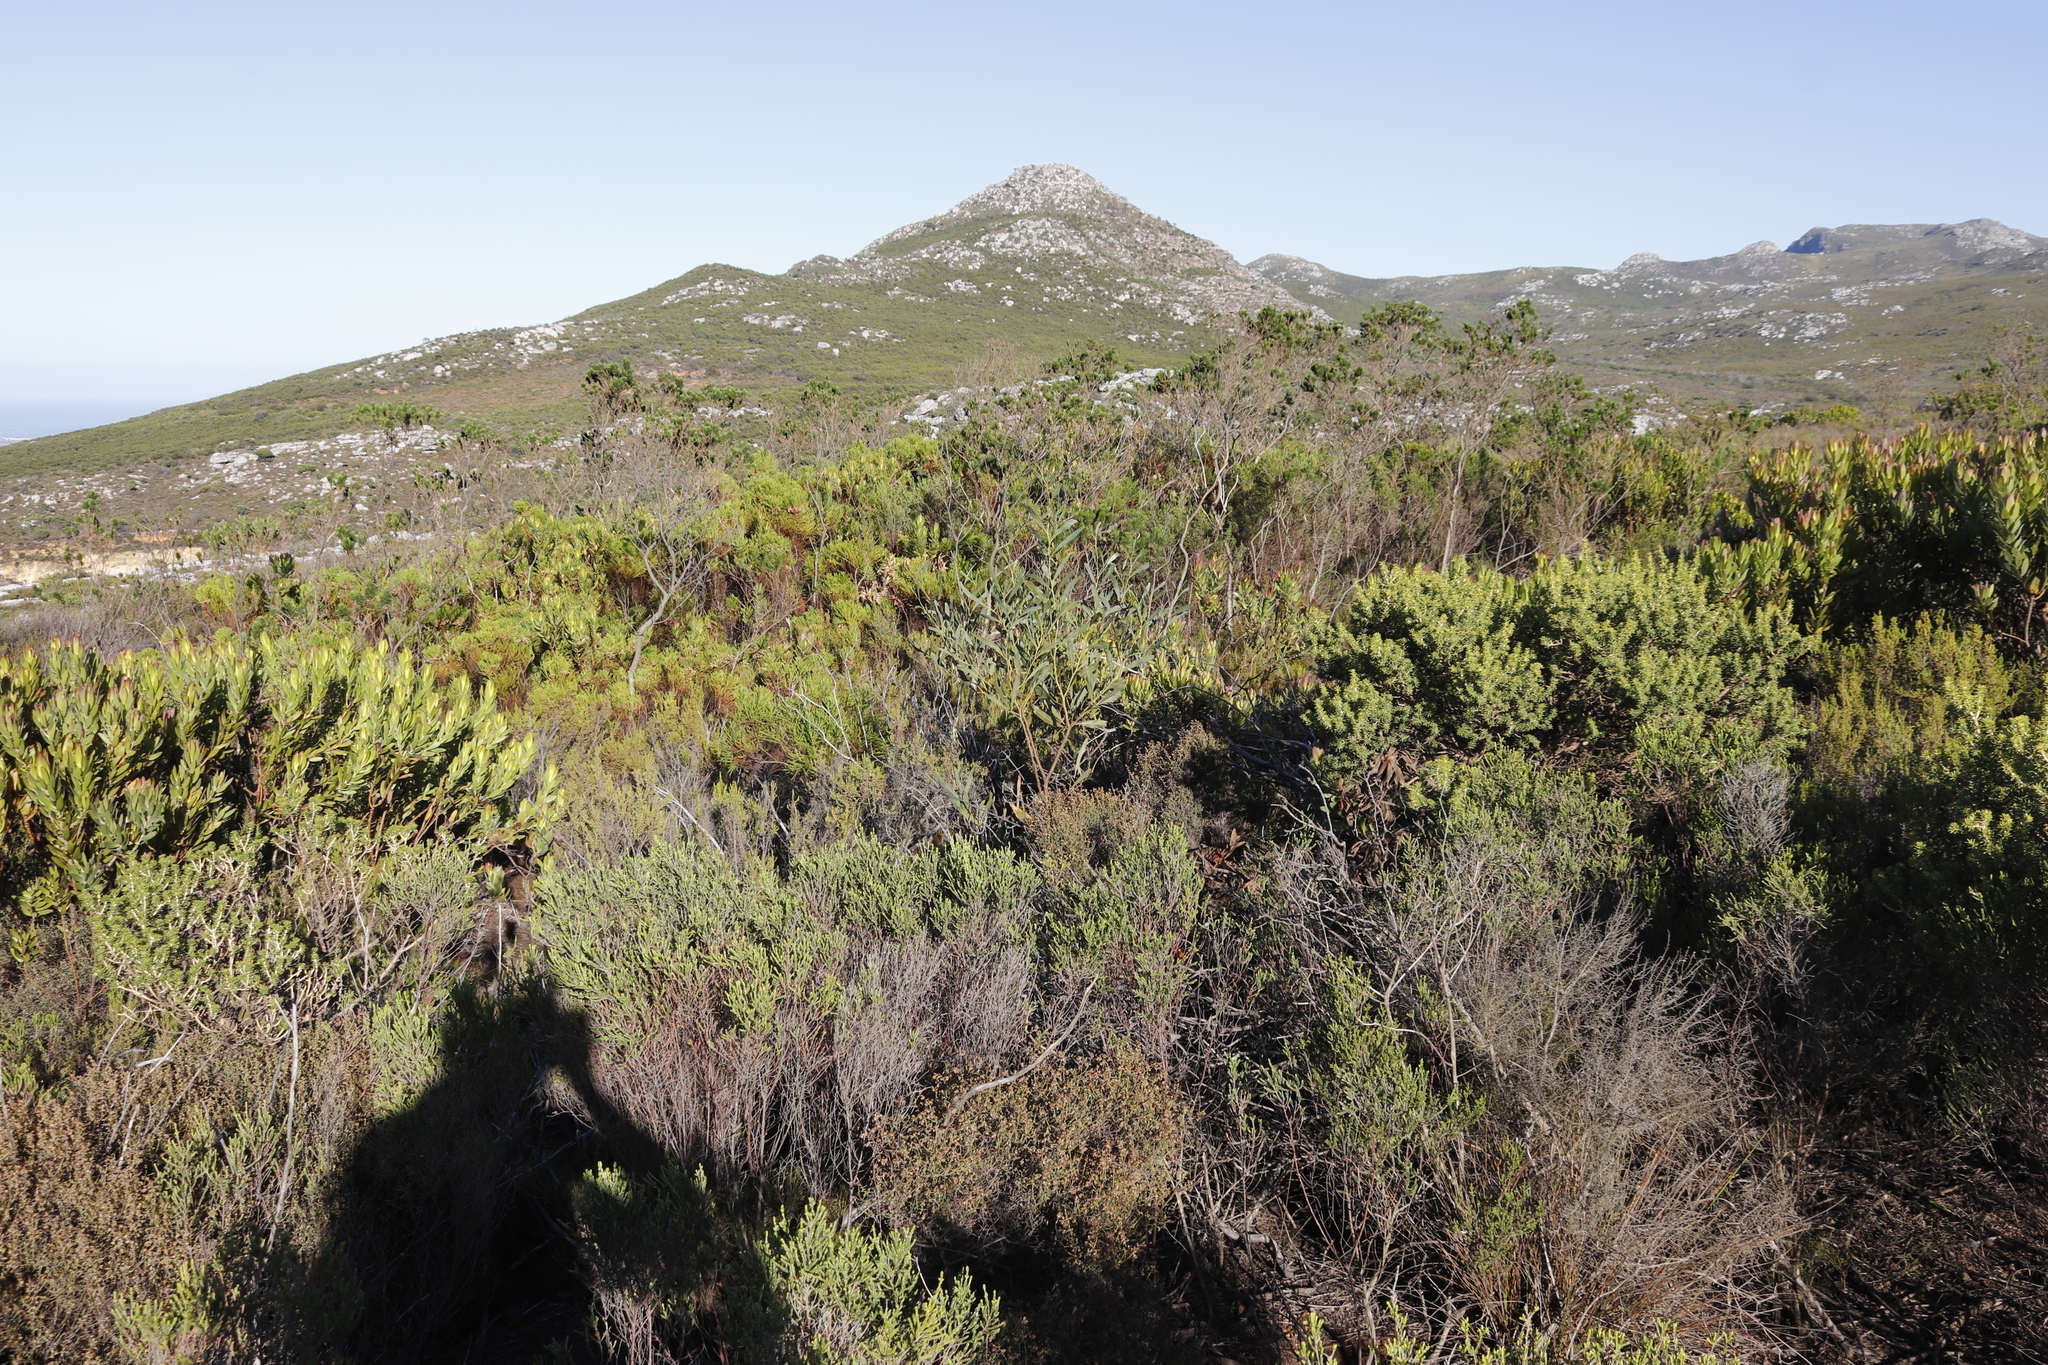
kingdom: Plantae
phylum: Tracheophyta
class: Magnoliopsida
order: Fabales
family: Fabaceae
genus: Acacia
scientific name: Acacia saligna
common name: Orange wattle
